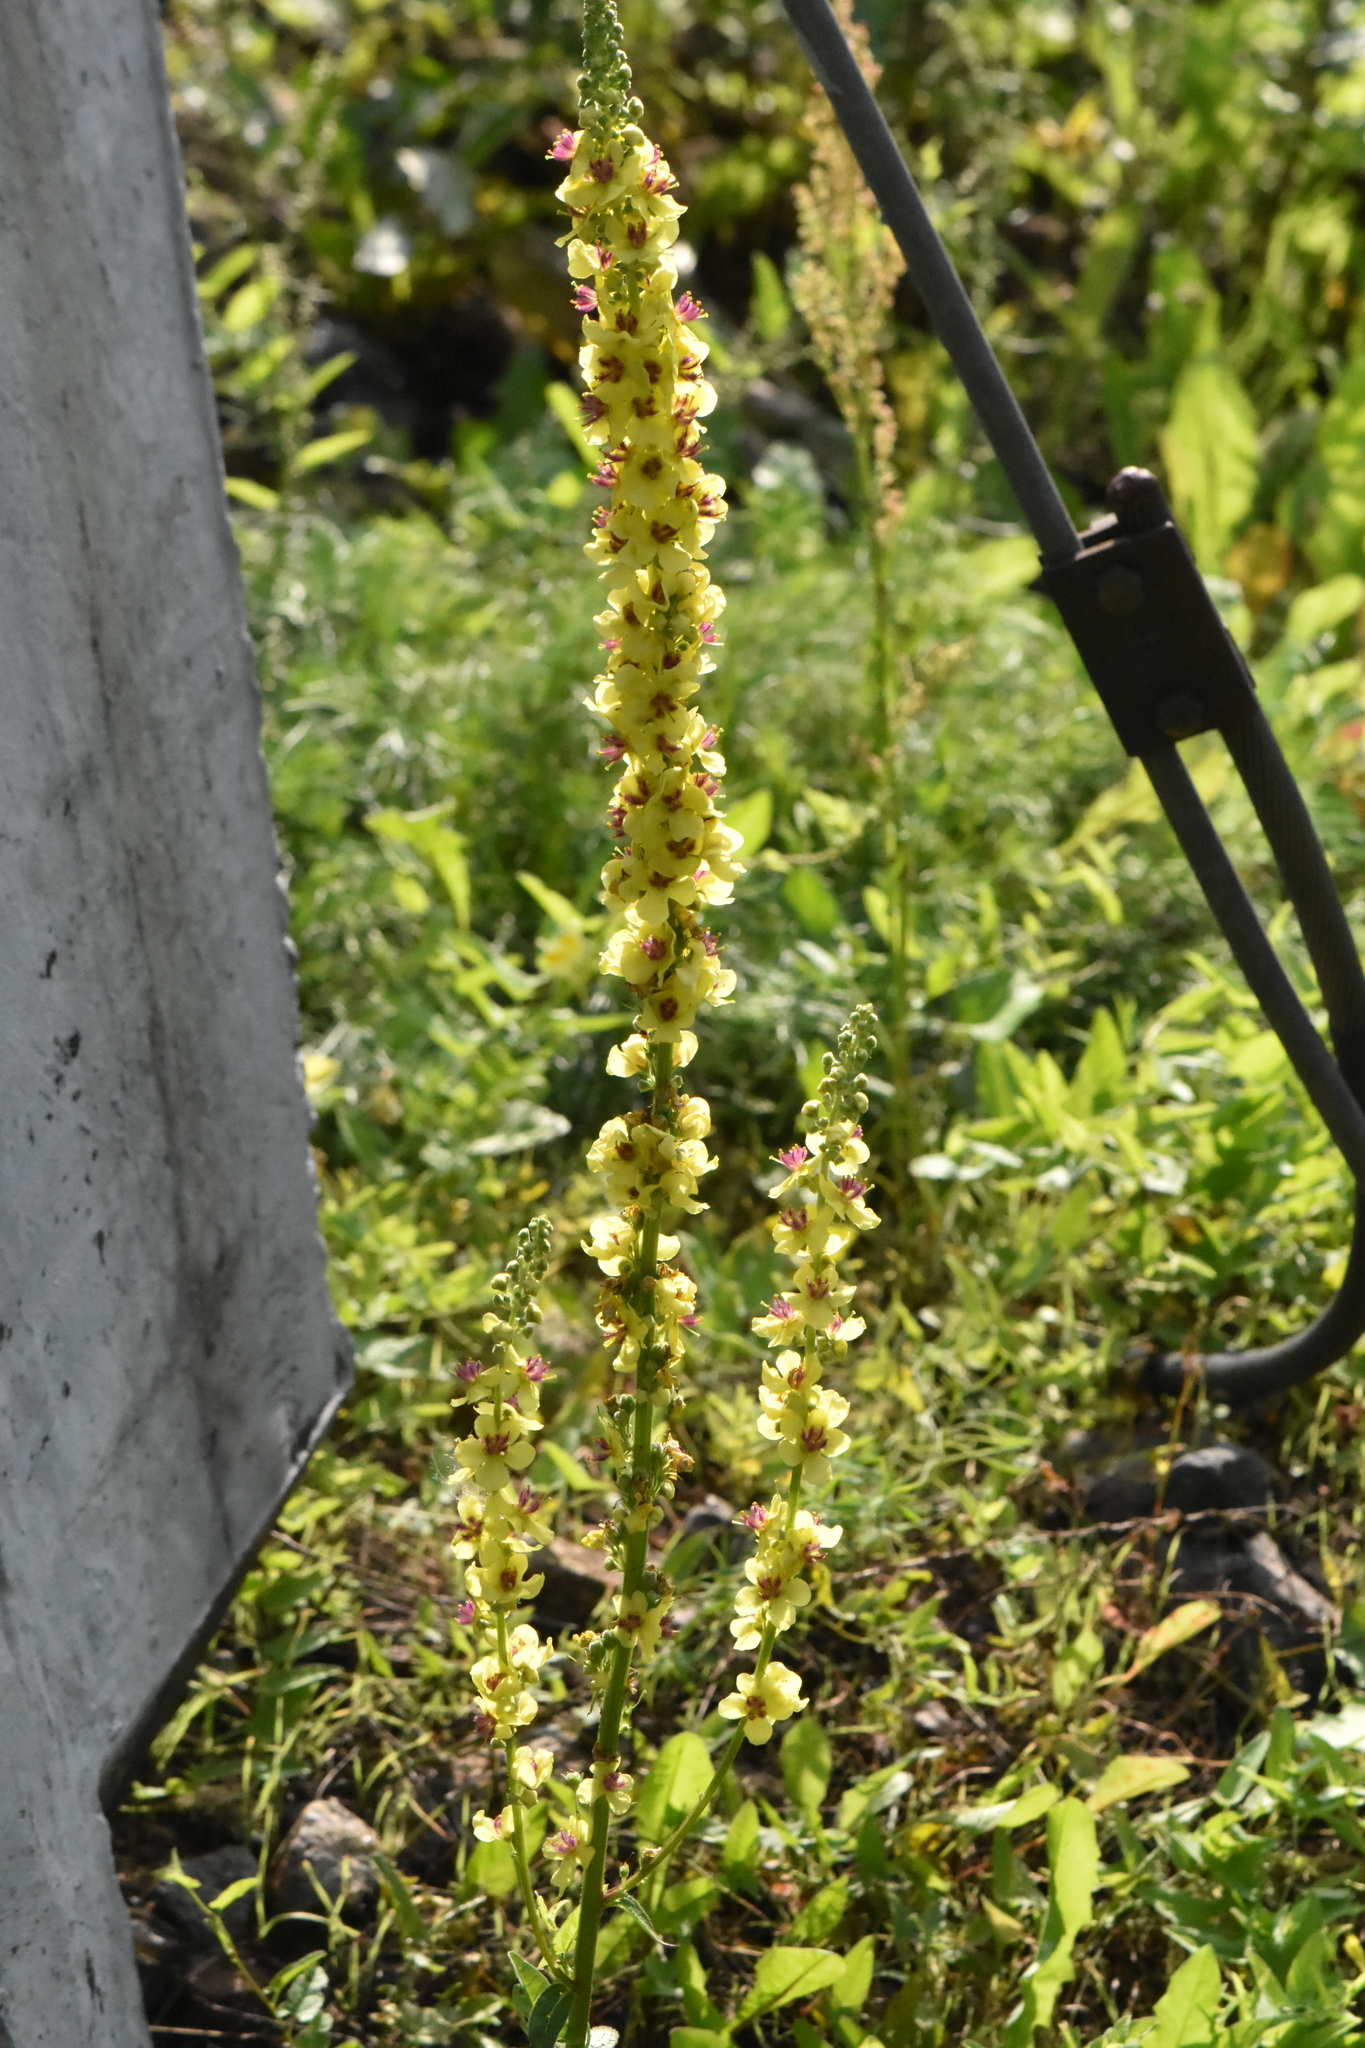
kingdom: Plantae
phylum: Tracheophyta
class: Magnoliopsida
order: Lamiales
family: Scrophulariaceae
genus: Verbascum
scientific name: Verbascum nigrum
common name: Dark mullein
